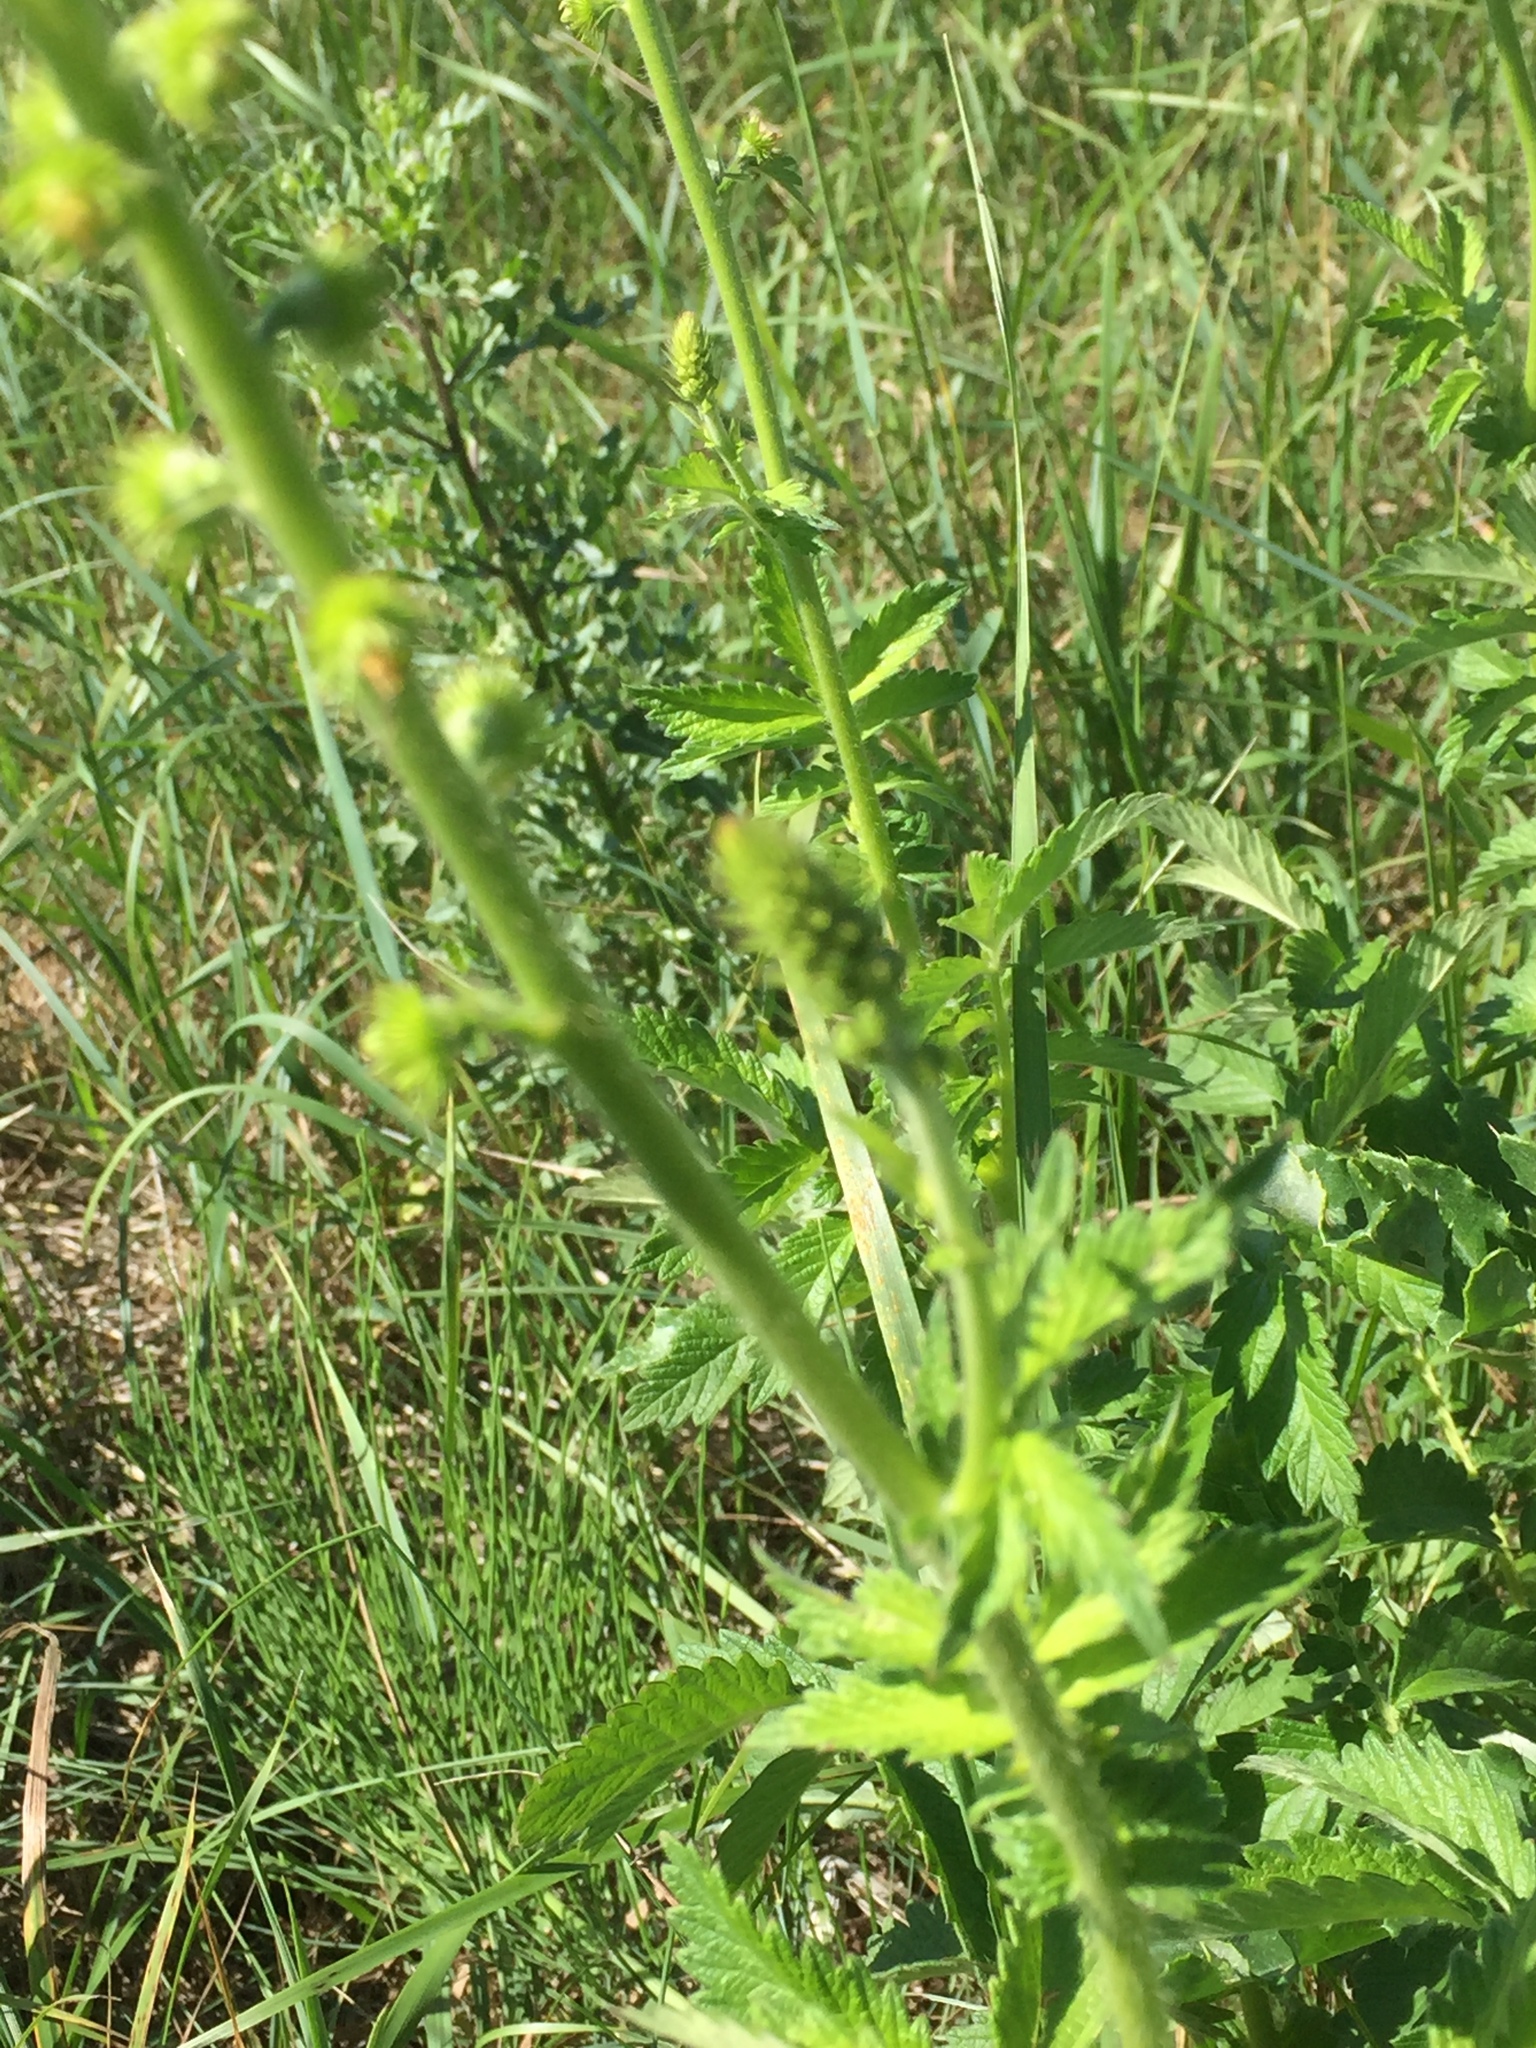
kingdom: Plantae
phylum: Tracheophyta
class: Magnoliopsida
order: Rosales
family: Rosaceae
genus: Agrimonia
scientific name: Agrimonia eupatoria
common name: Agrimony
